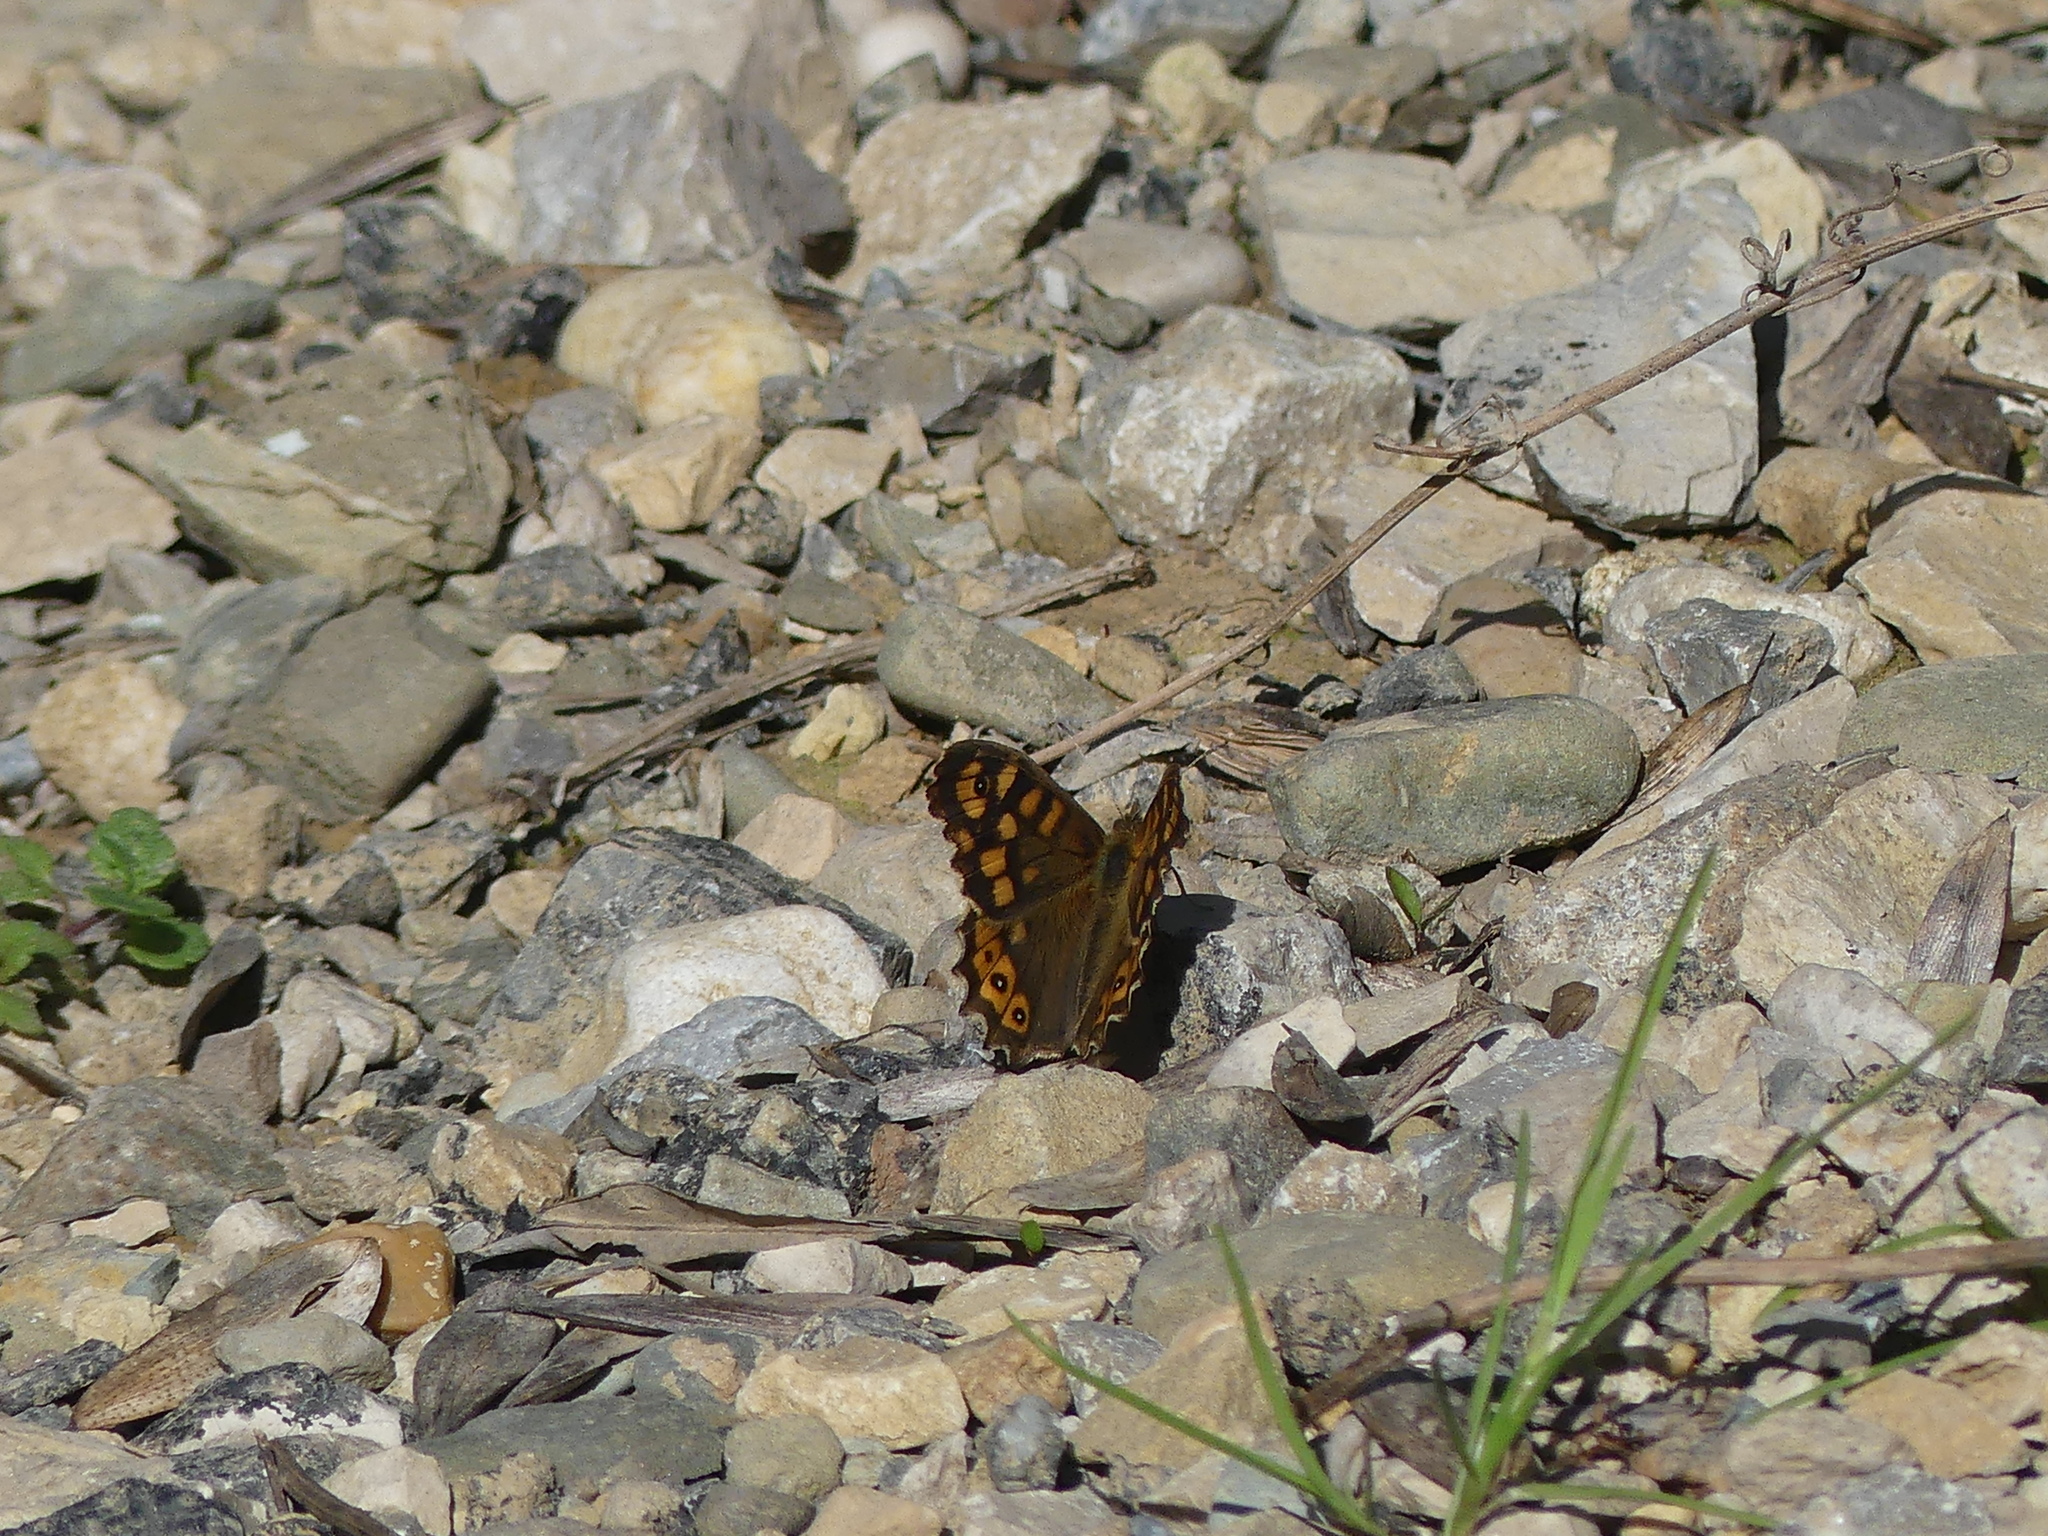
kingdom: Animalia
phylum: Arthropoda
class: Insecta
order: Lepidoptera
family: Nymphalidae
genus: Pararge
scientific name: Pararge aegeria
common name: Speckled wood
